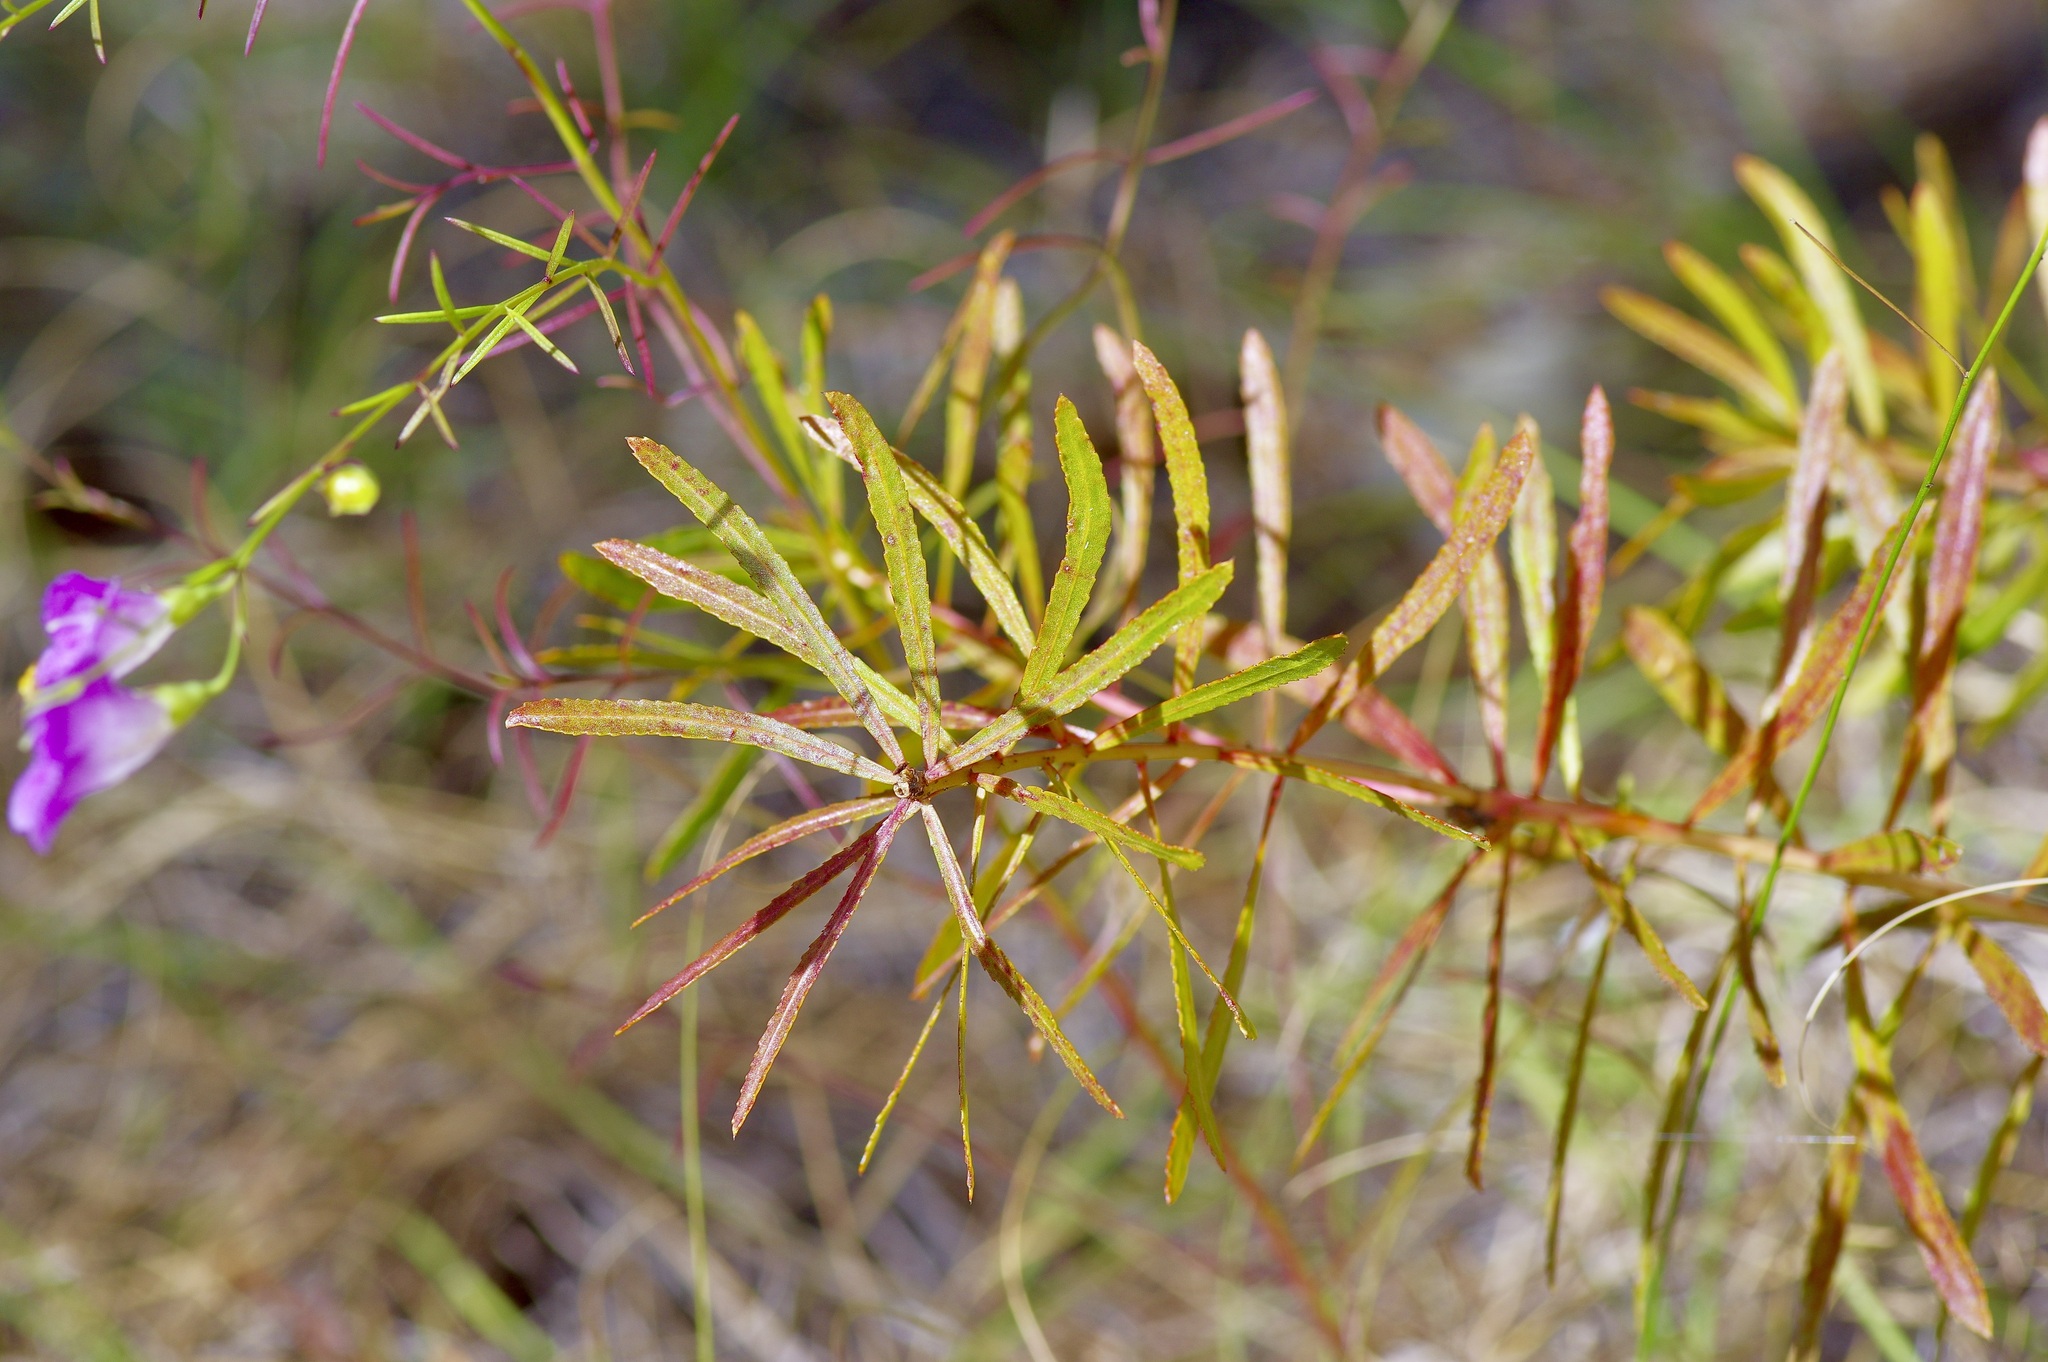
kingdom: Plantae
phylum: Tracheophyta
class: Magnoliopsida
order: Malpighiales
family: Euphorbiaceae
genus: Stillingia
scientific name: Stillingia texana
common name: Texas stillingia
